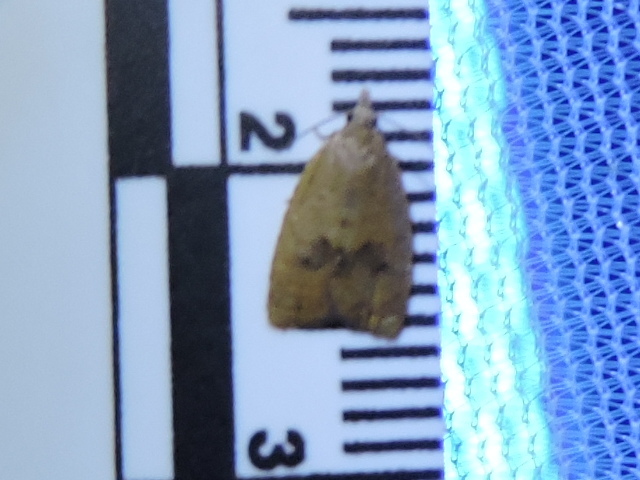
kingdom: Animalia
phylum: Arthropoda
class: Insecta
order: Lepidoptera
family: Tortricidae
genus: Sparganothoides
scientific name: Sparganothoides lentiginosana
